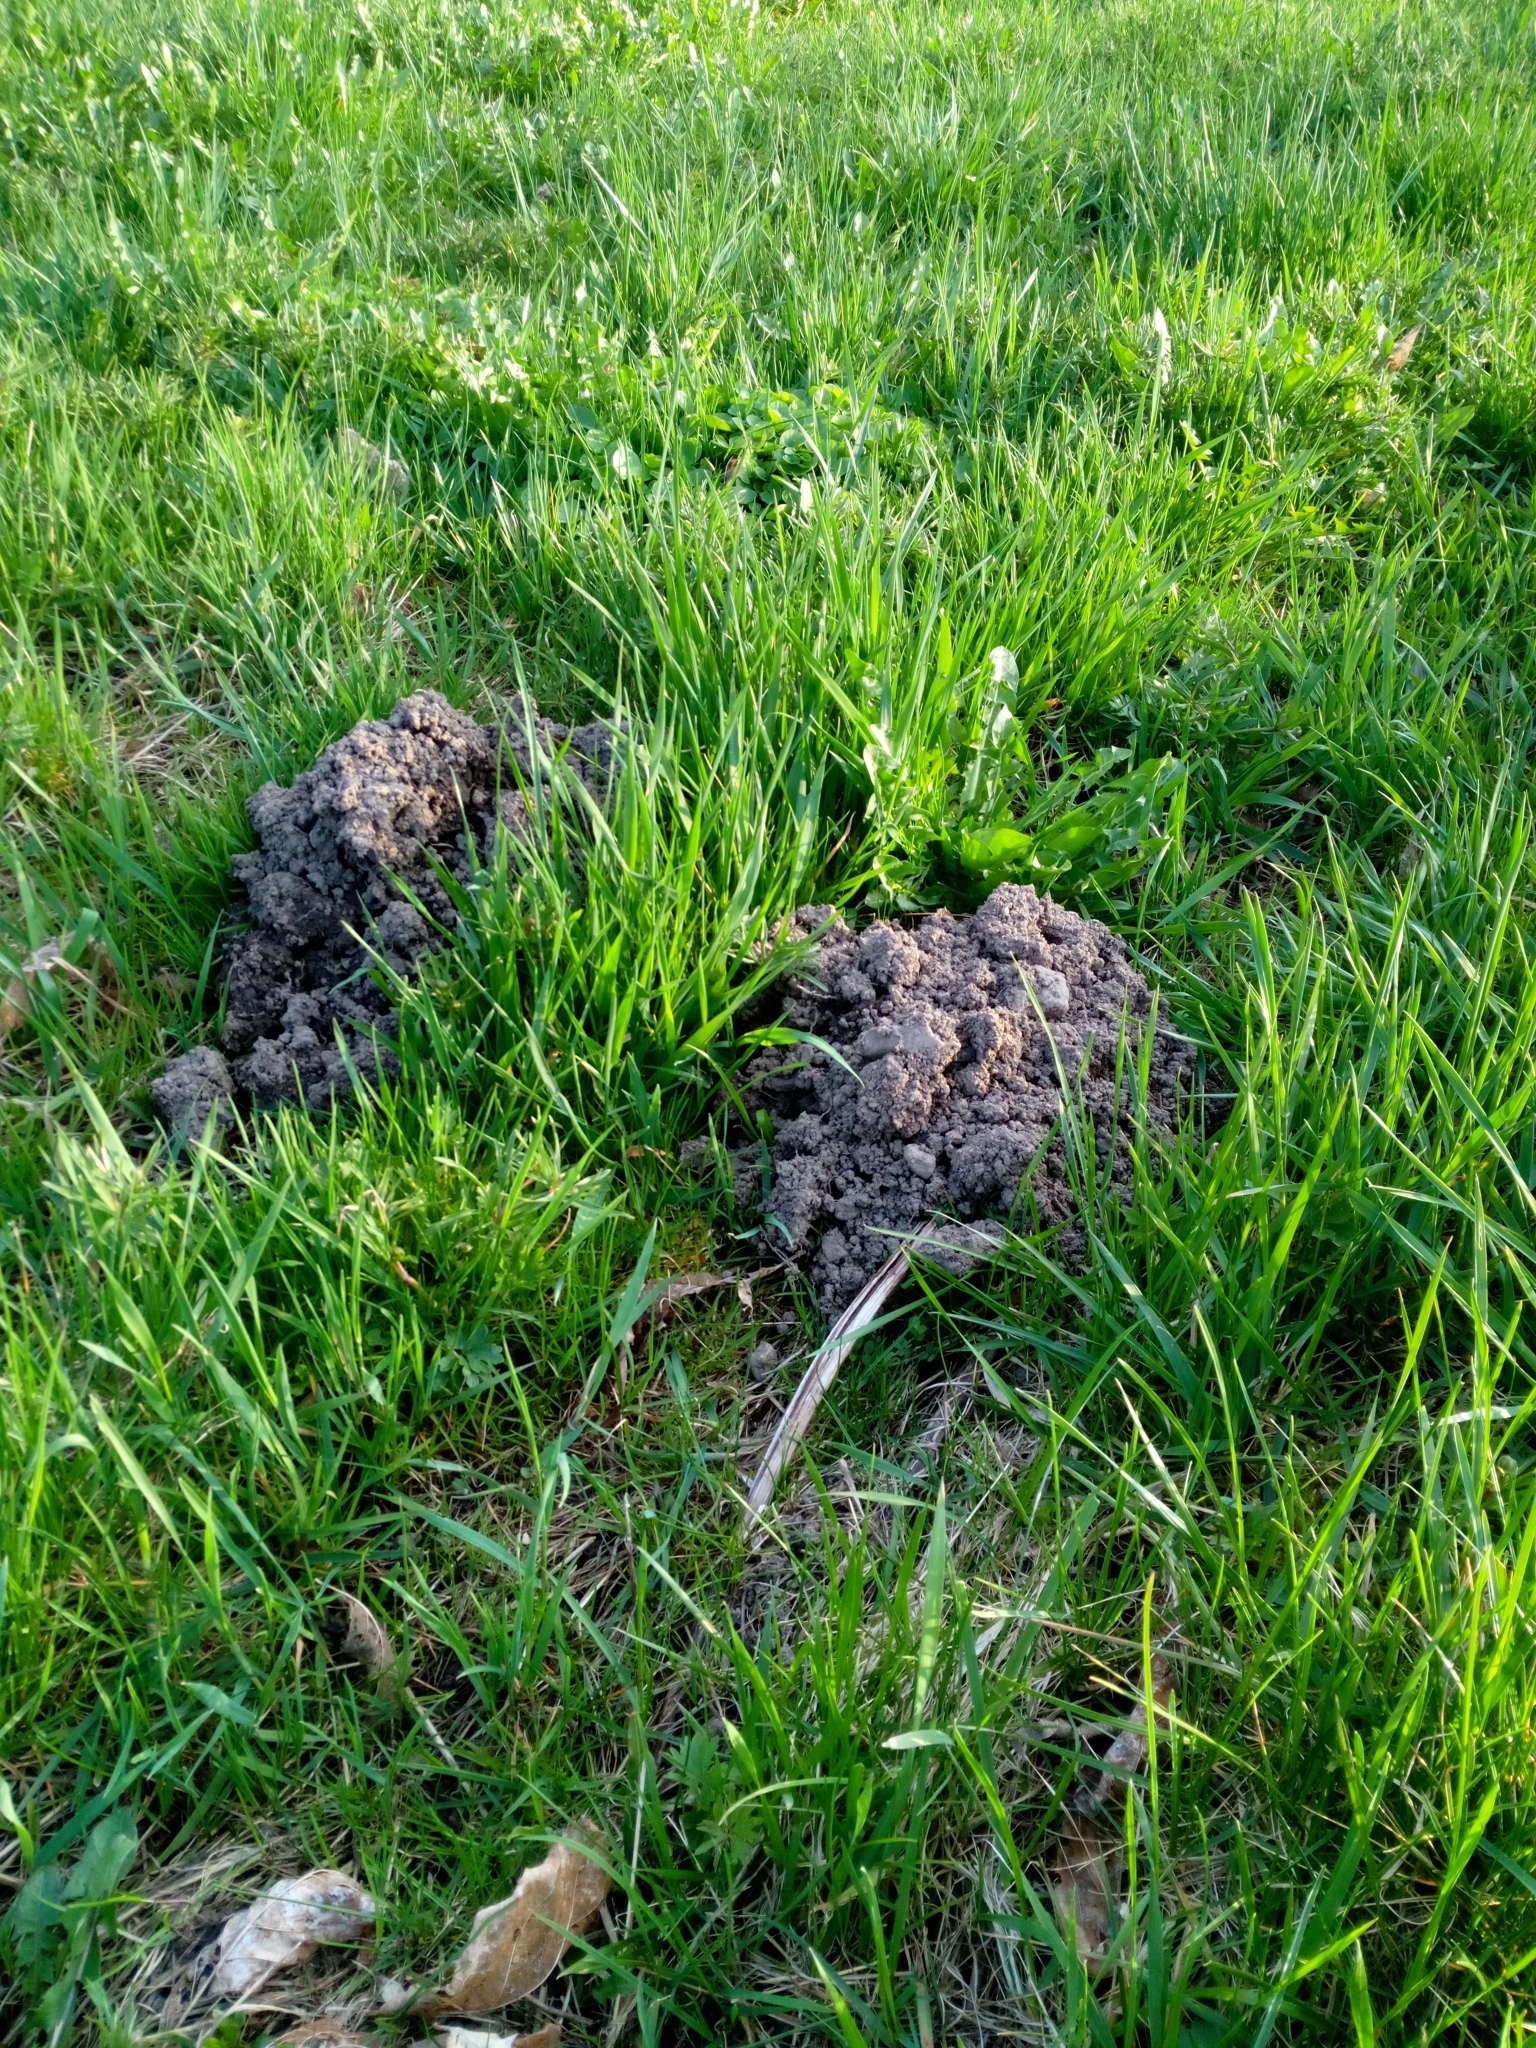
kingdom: Animalia
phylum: Chordata
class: Mammalia
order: Soricomorpha
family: Talpidae
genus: Talpa
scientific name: Talpa europaea
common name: European mole
